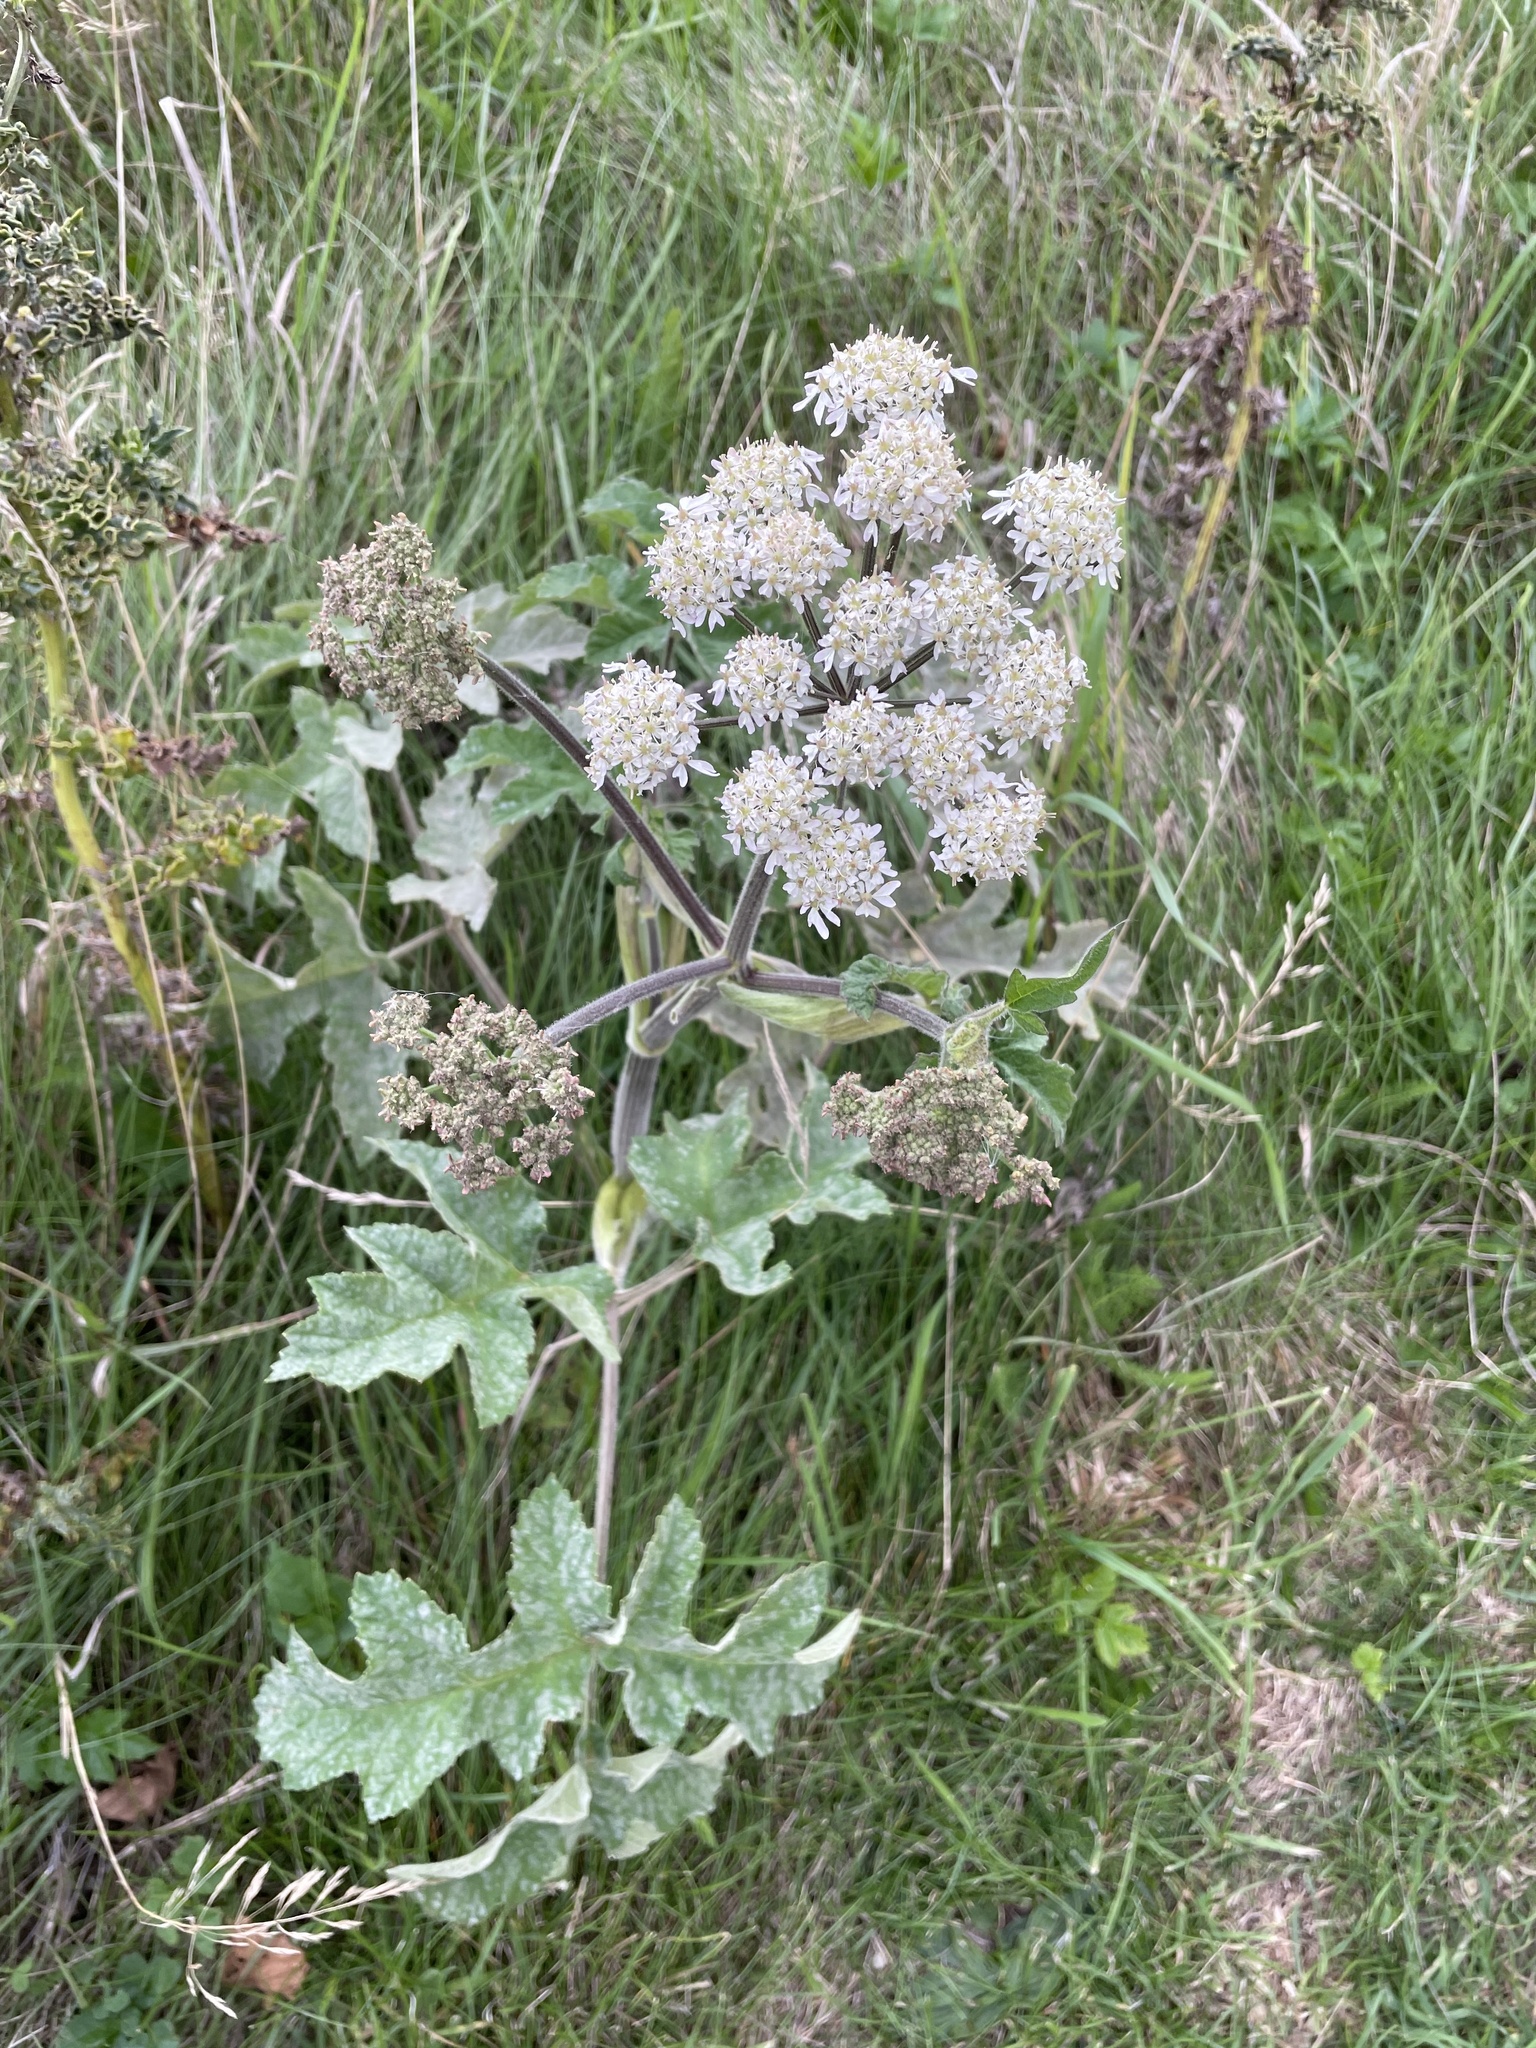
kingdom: Plantae
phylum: Tracheophyta
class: Magnoliopsida
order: Apiales
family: Apiaceae
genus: Heracleum
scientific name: Heracleum sphondylium
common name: Hogweed
